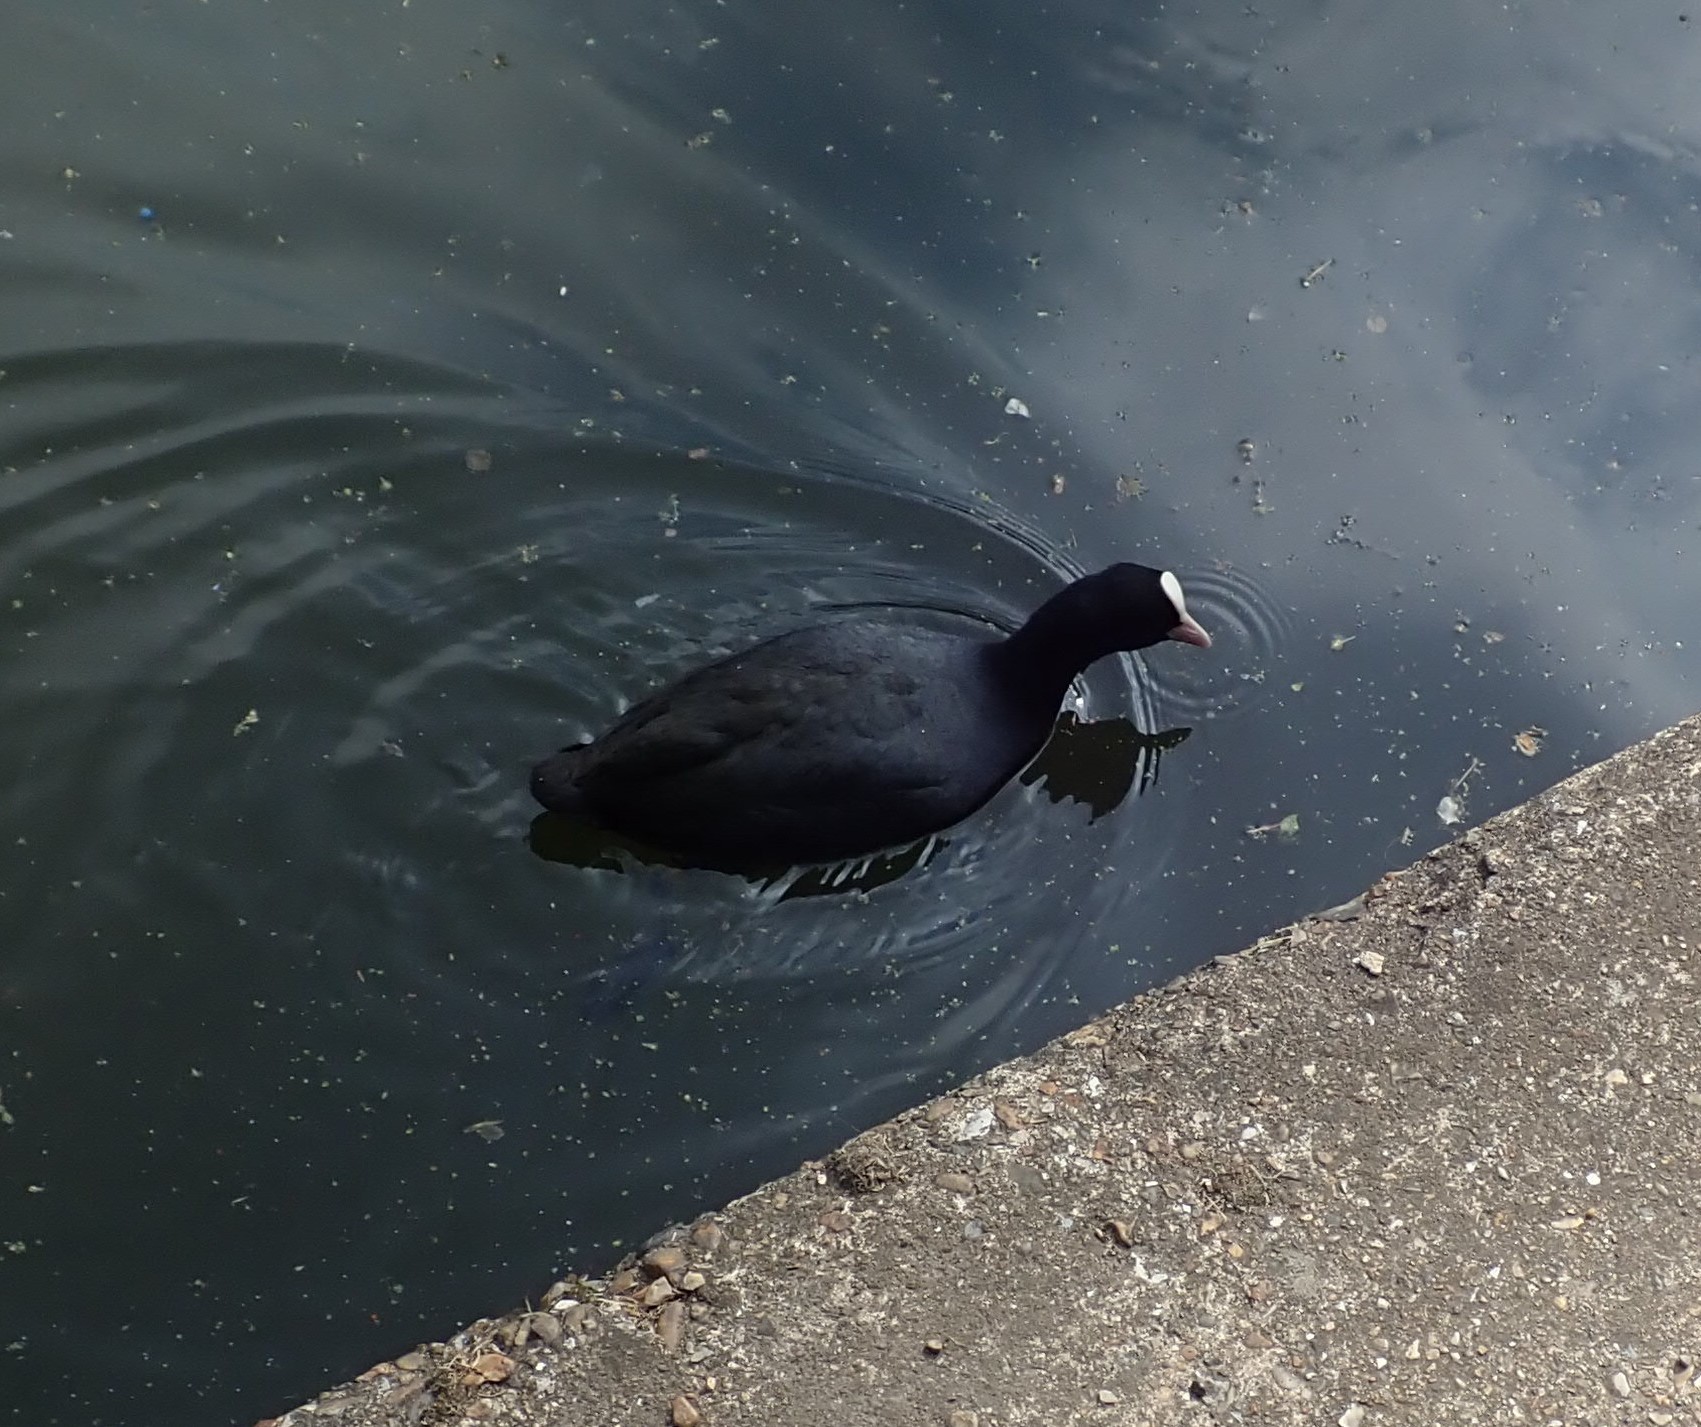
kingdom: Animalia
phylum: Chordata
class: Aves
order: Gruiformes
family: Rallidae
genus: Fulica
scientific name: Fulica atra
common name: Eurasian coot
